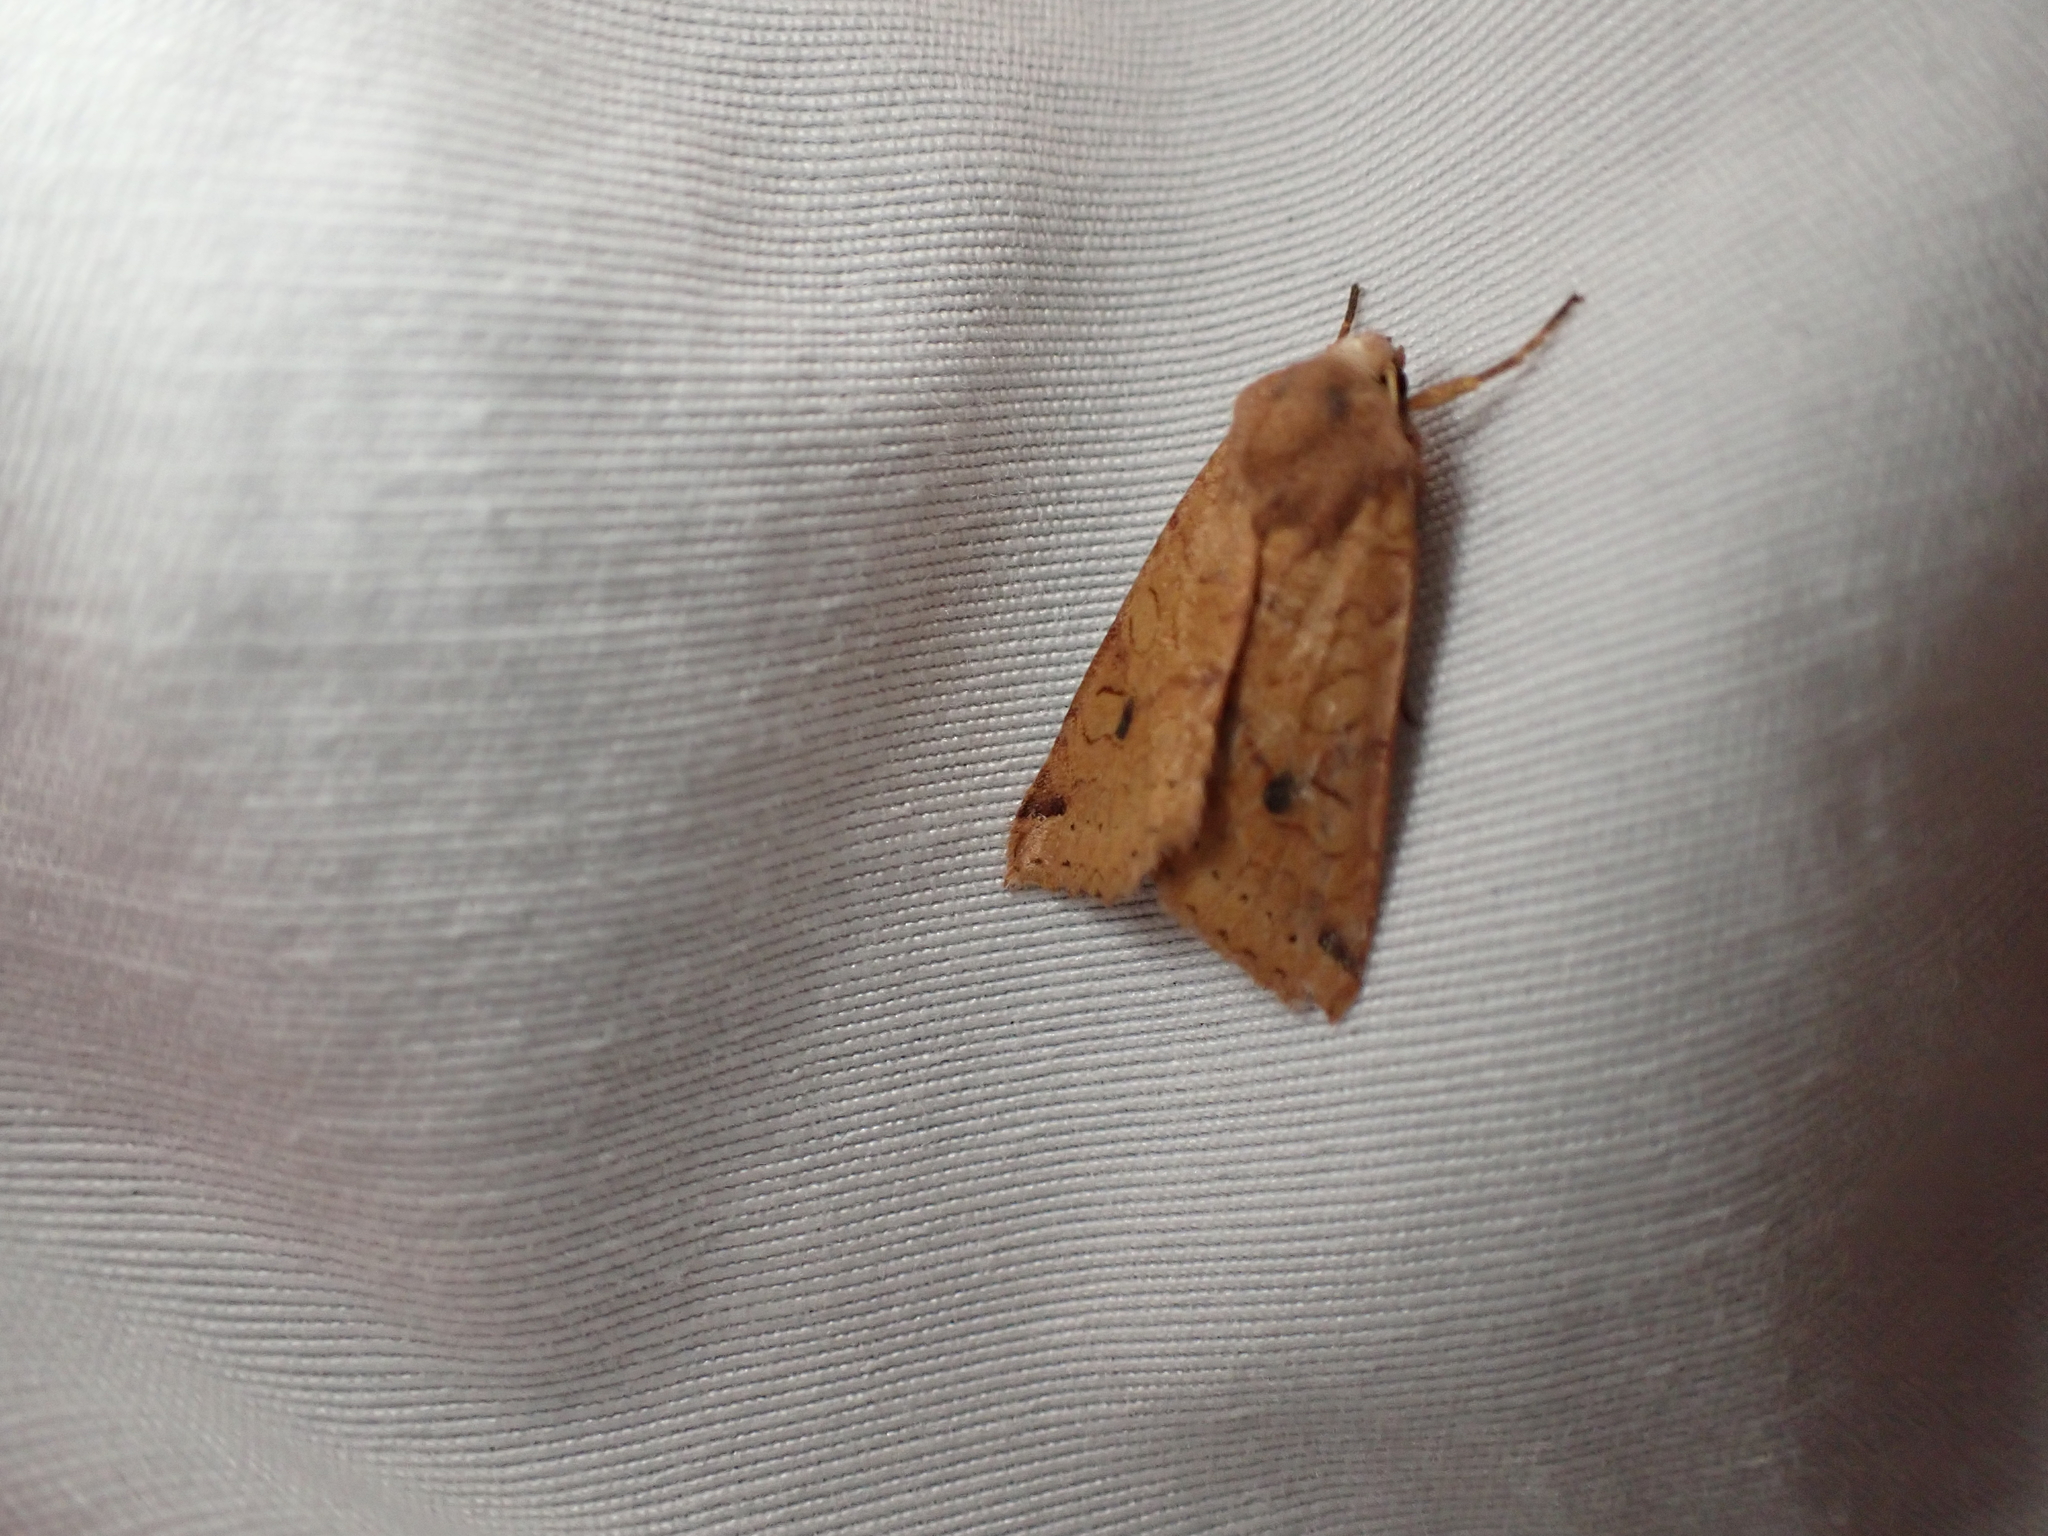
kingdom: Animalia
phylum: Arthropoda
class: Insecta
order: Lepidoptera
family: Noctuidae
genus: Agrochola
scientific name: Agrochola purpurea
